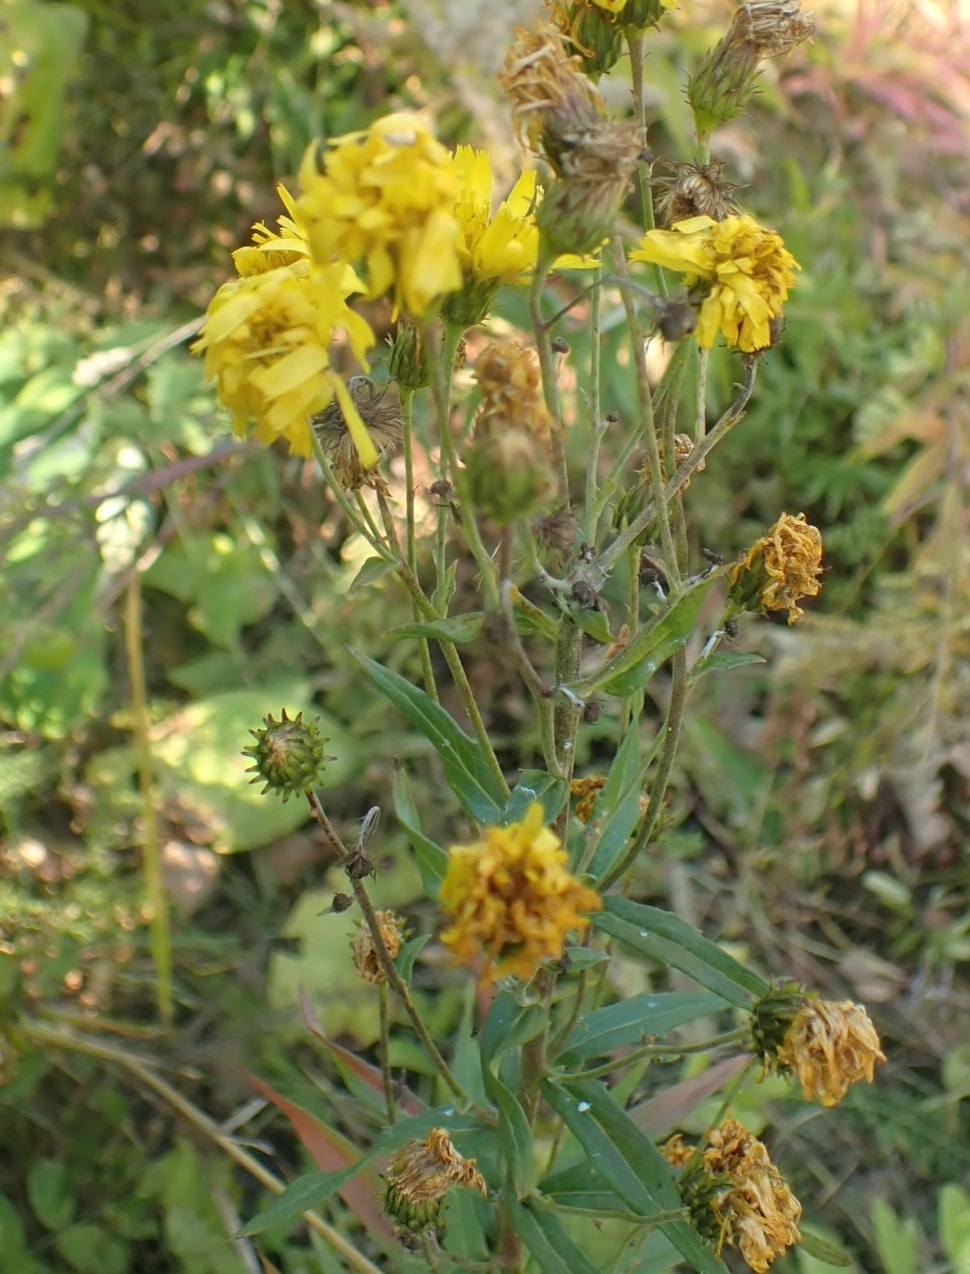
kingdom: Plantae
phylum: Tracheophyta
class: Magnoliopsida
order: Asterales
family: Asteraceae
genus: Hieracium
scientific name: Hieracium umbellatum
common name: Northern hawkweed
